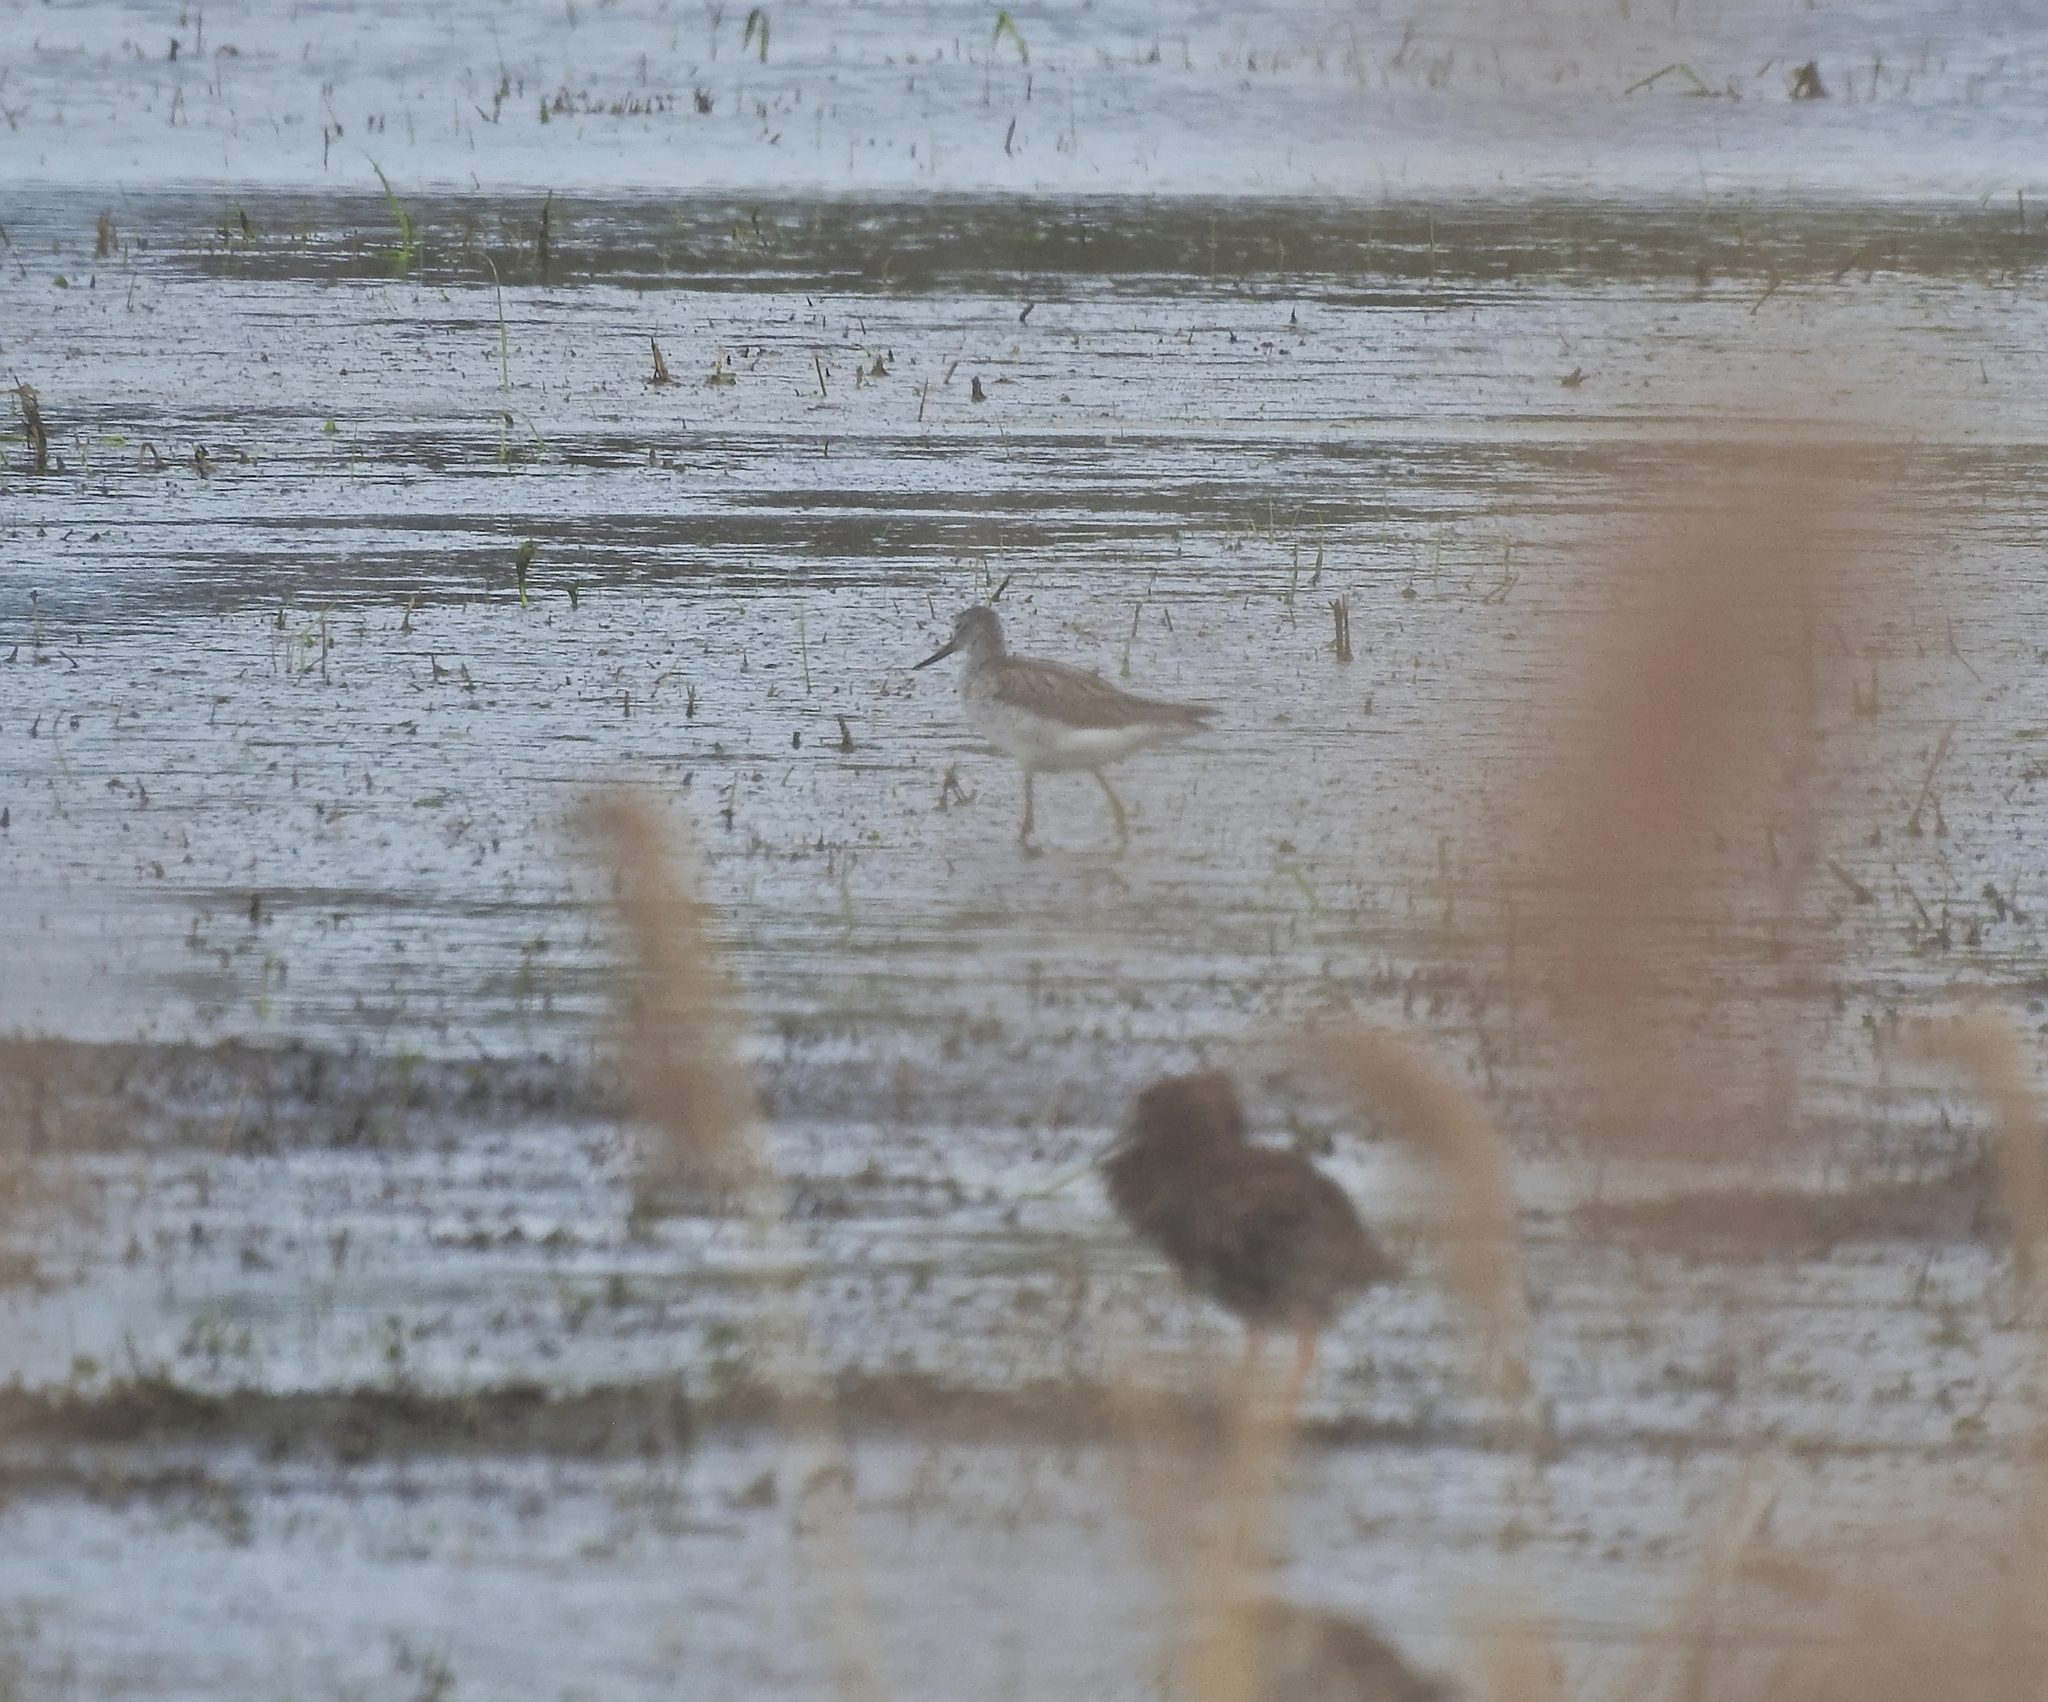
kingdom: Animalia
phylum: Chordata
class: Aves
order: Charadriiformes
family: Scolopacidae
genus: Tringa
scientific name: Tringa nebularia
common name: Common greenshank
